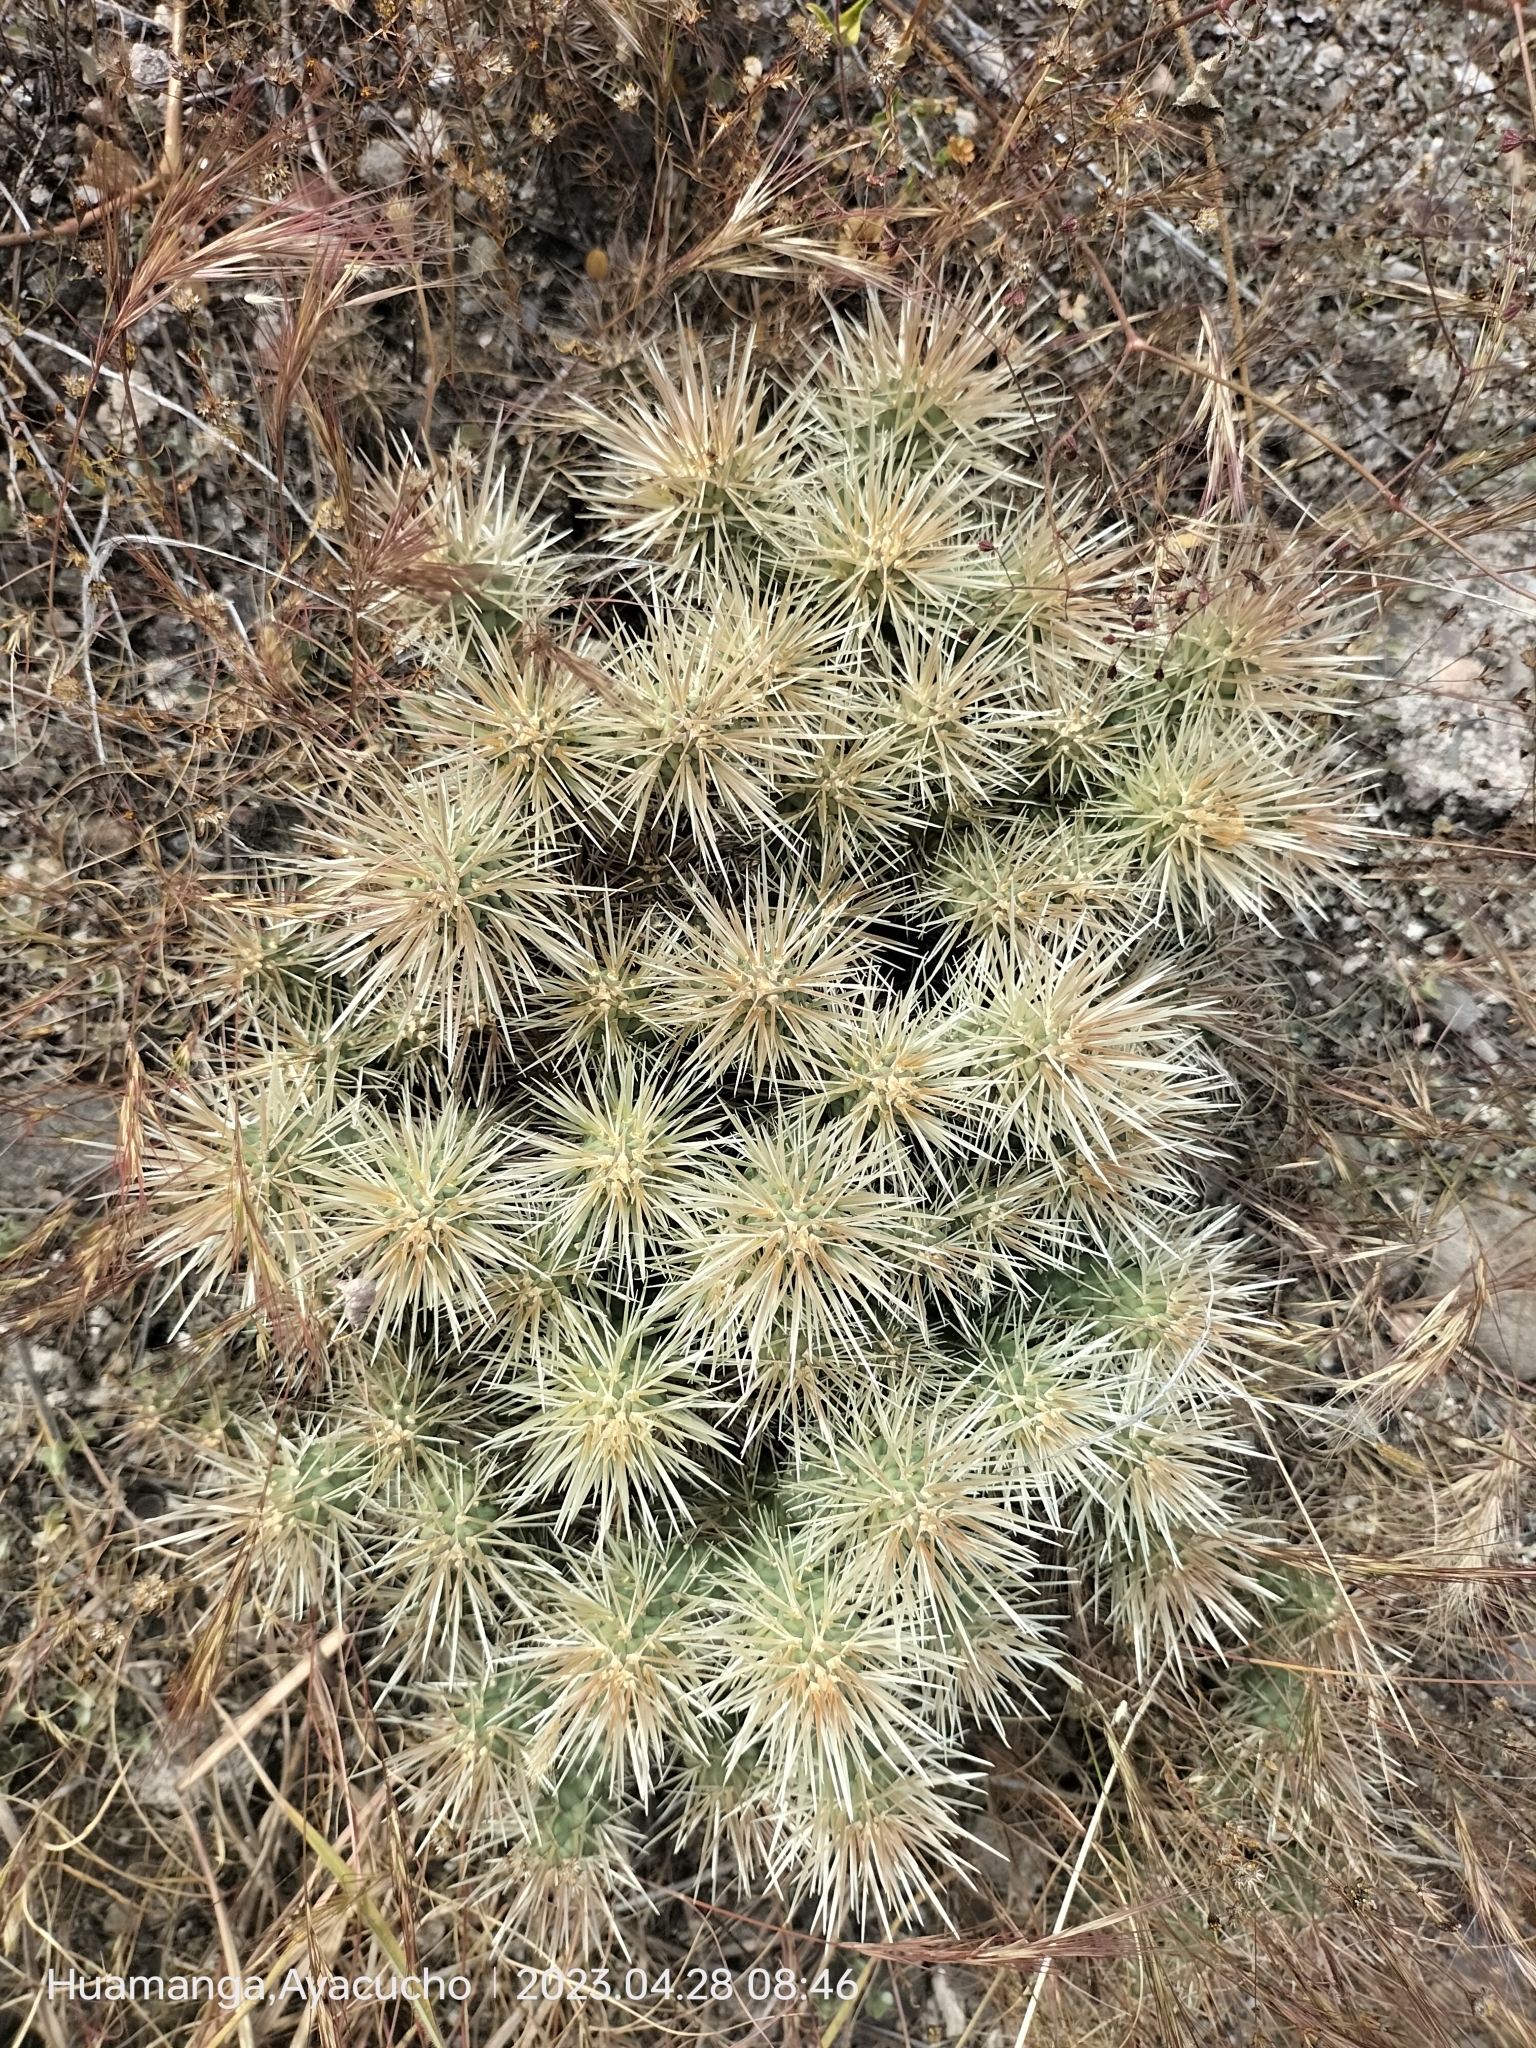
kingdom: Plantae
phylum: Tracheophyta
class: Magnoliopsida
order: Caryophyllales
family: Cactaceae
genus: Cylindropuntia
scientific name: Cylindropuntia tunicata
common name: Sheathed cholla
